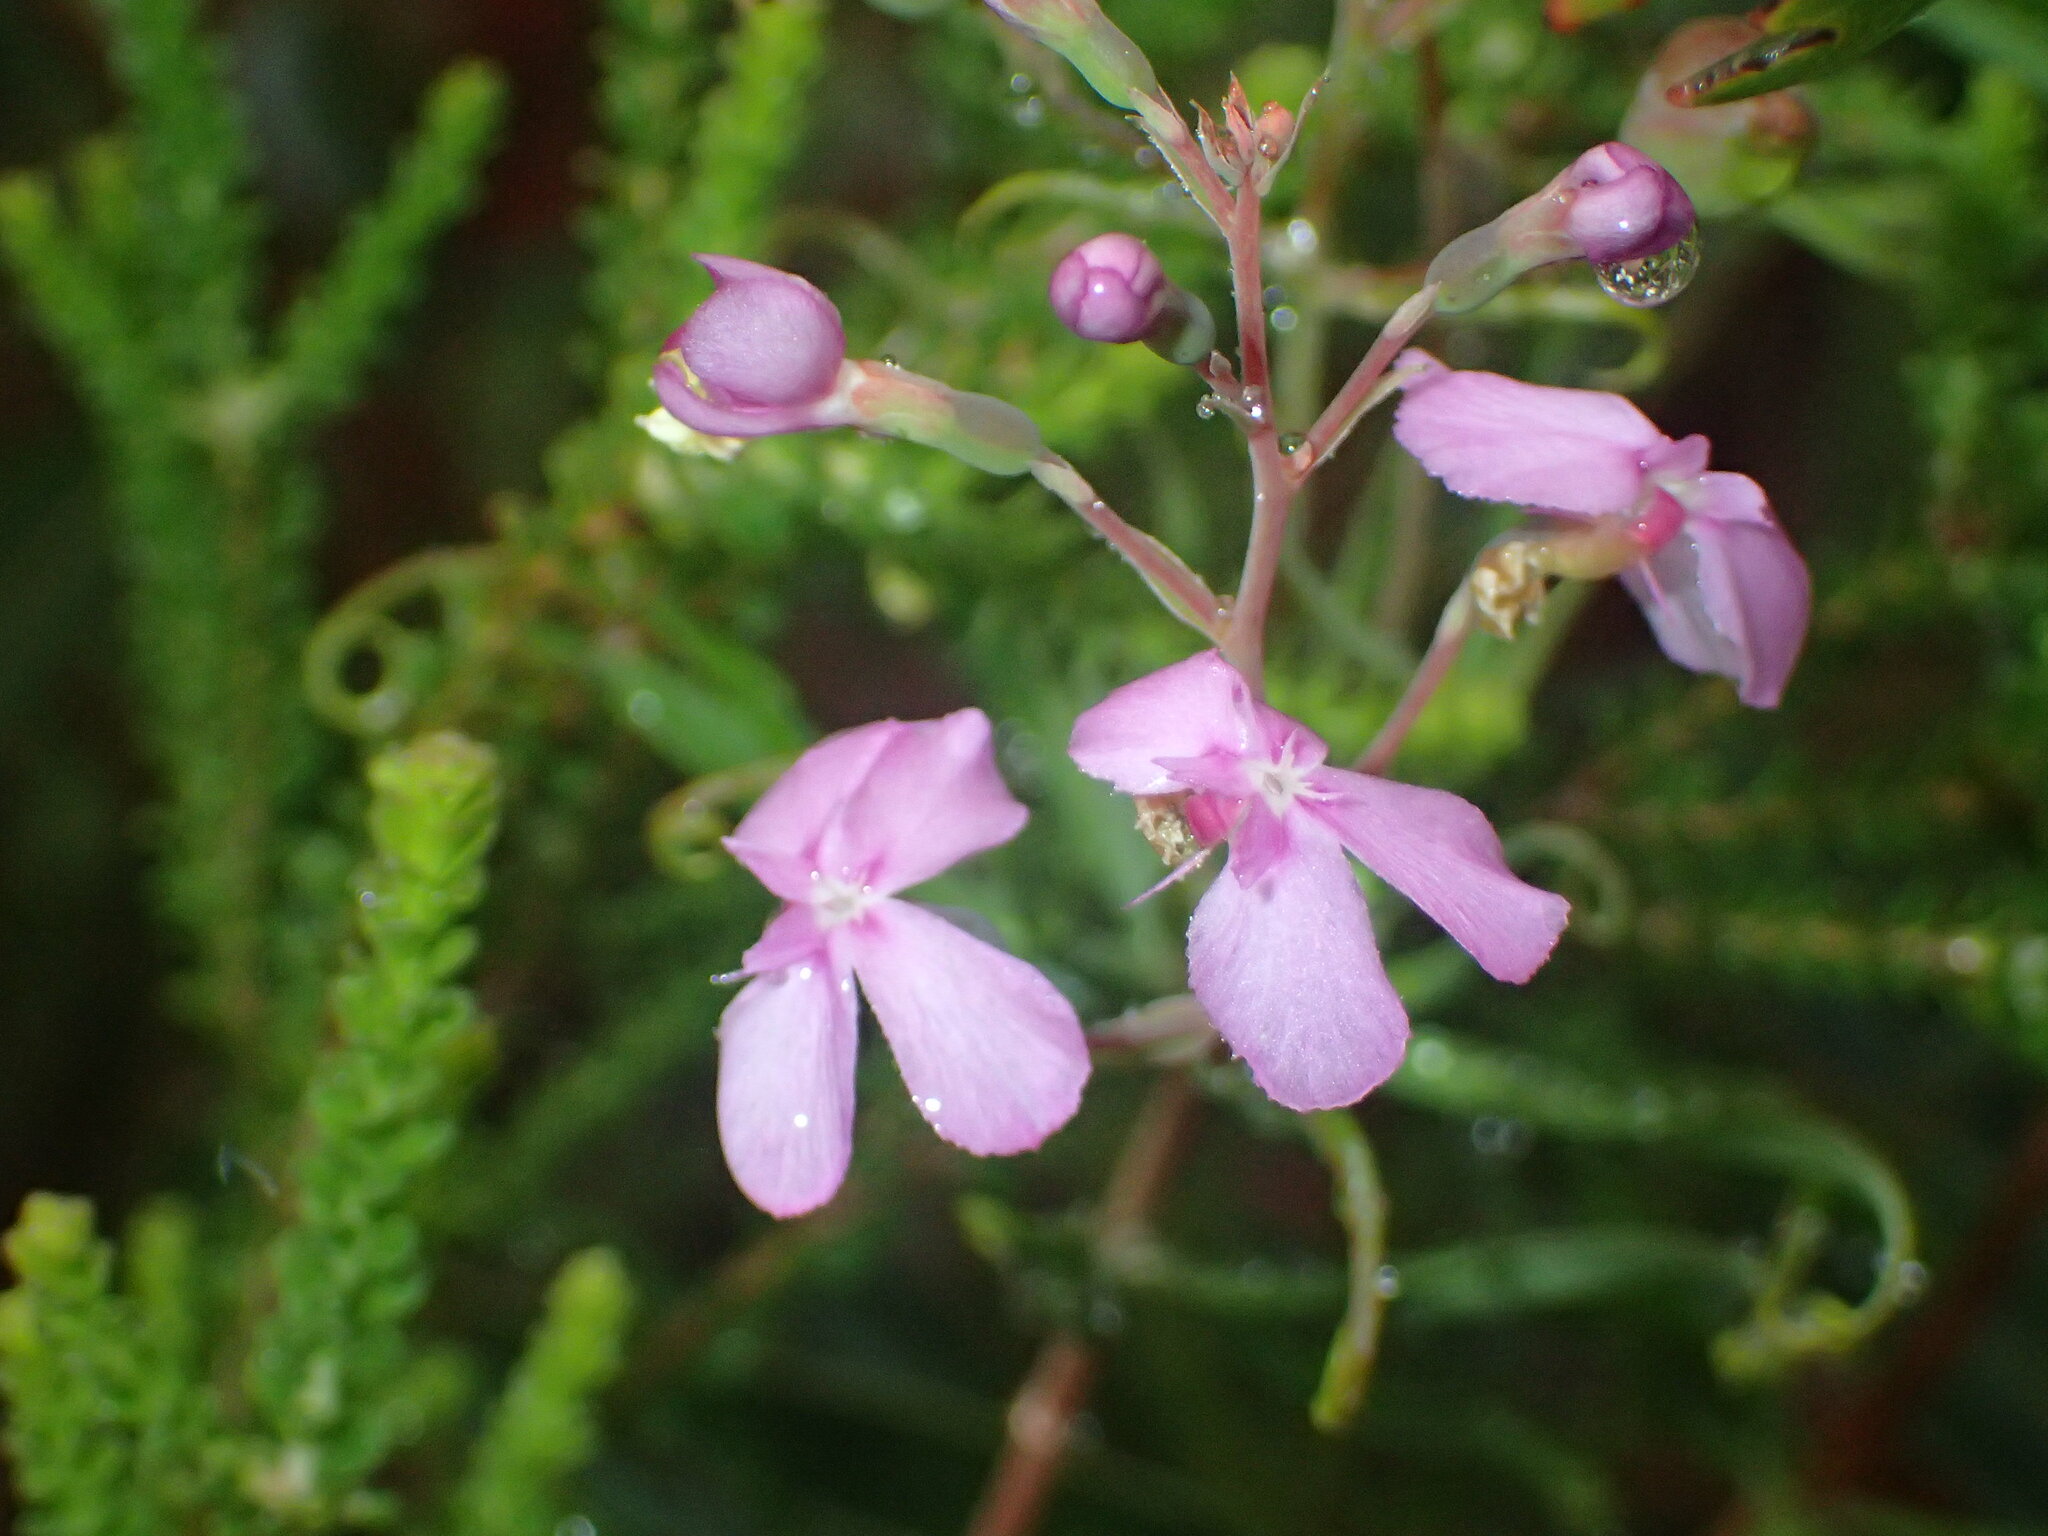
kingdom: Plantae
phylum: Tracheophyta
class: Magnoliopsida
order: Asterales
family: Stylidiaceae
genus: Stylidium
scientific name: Stylidium scandens
